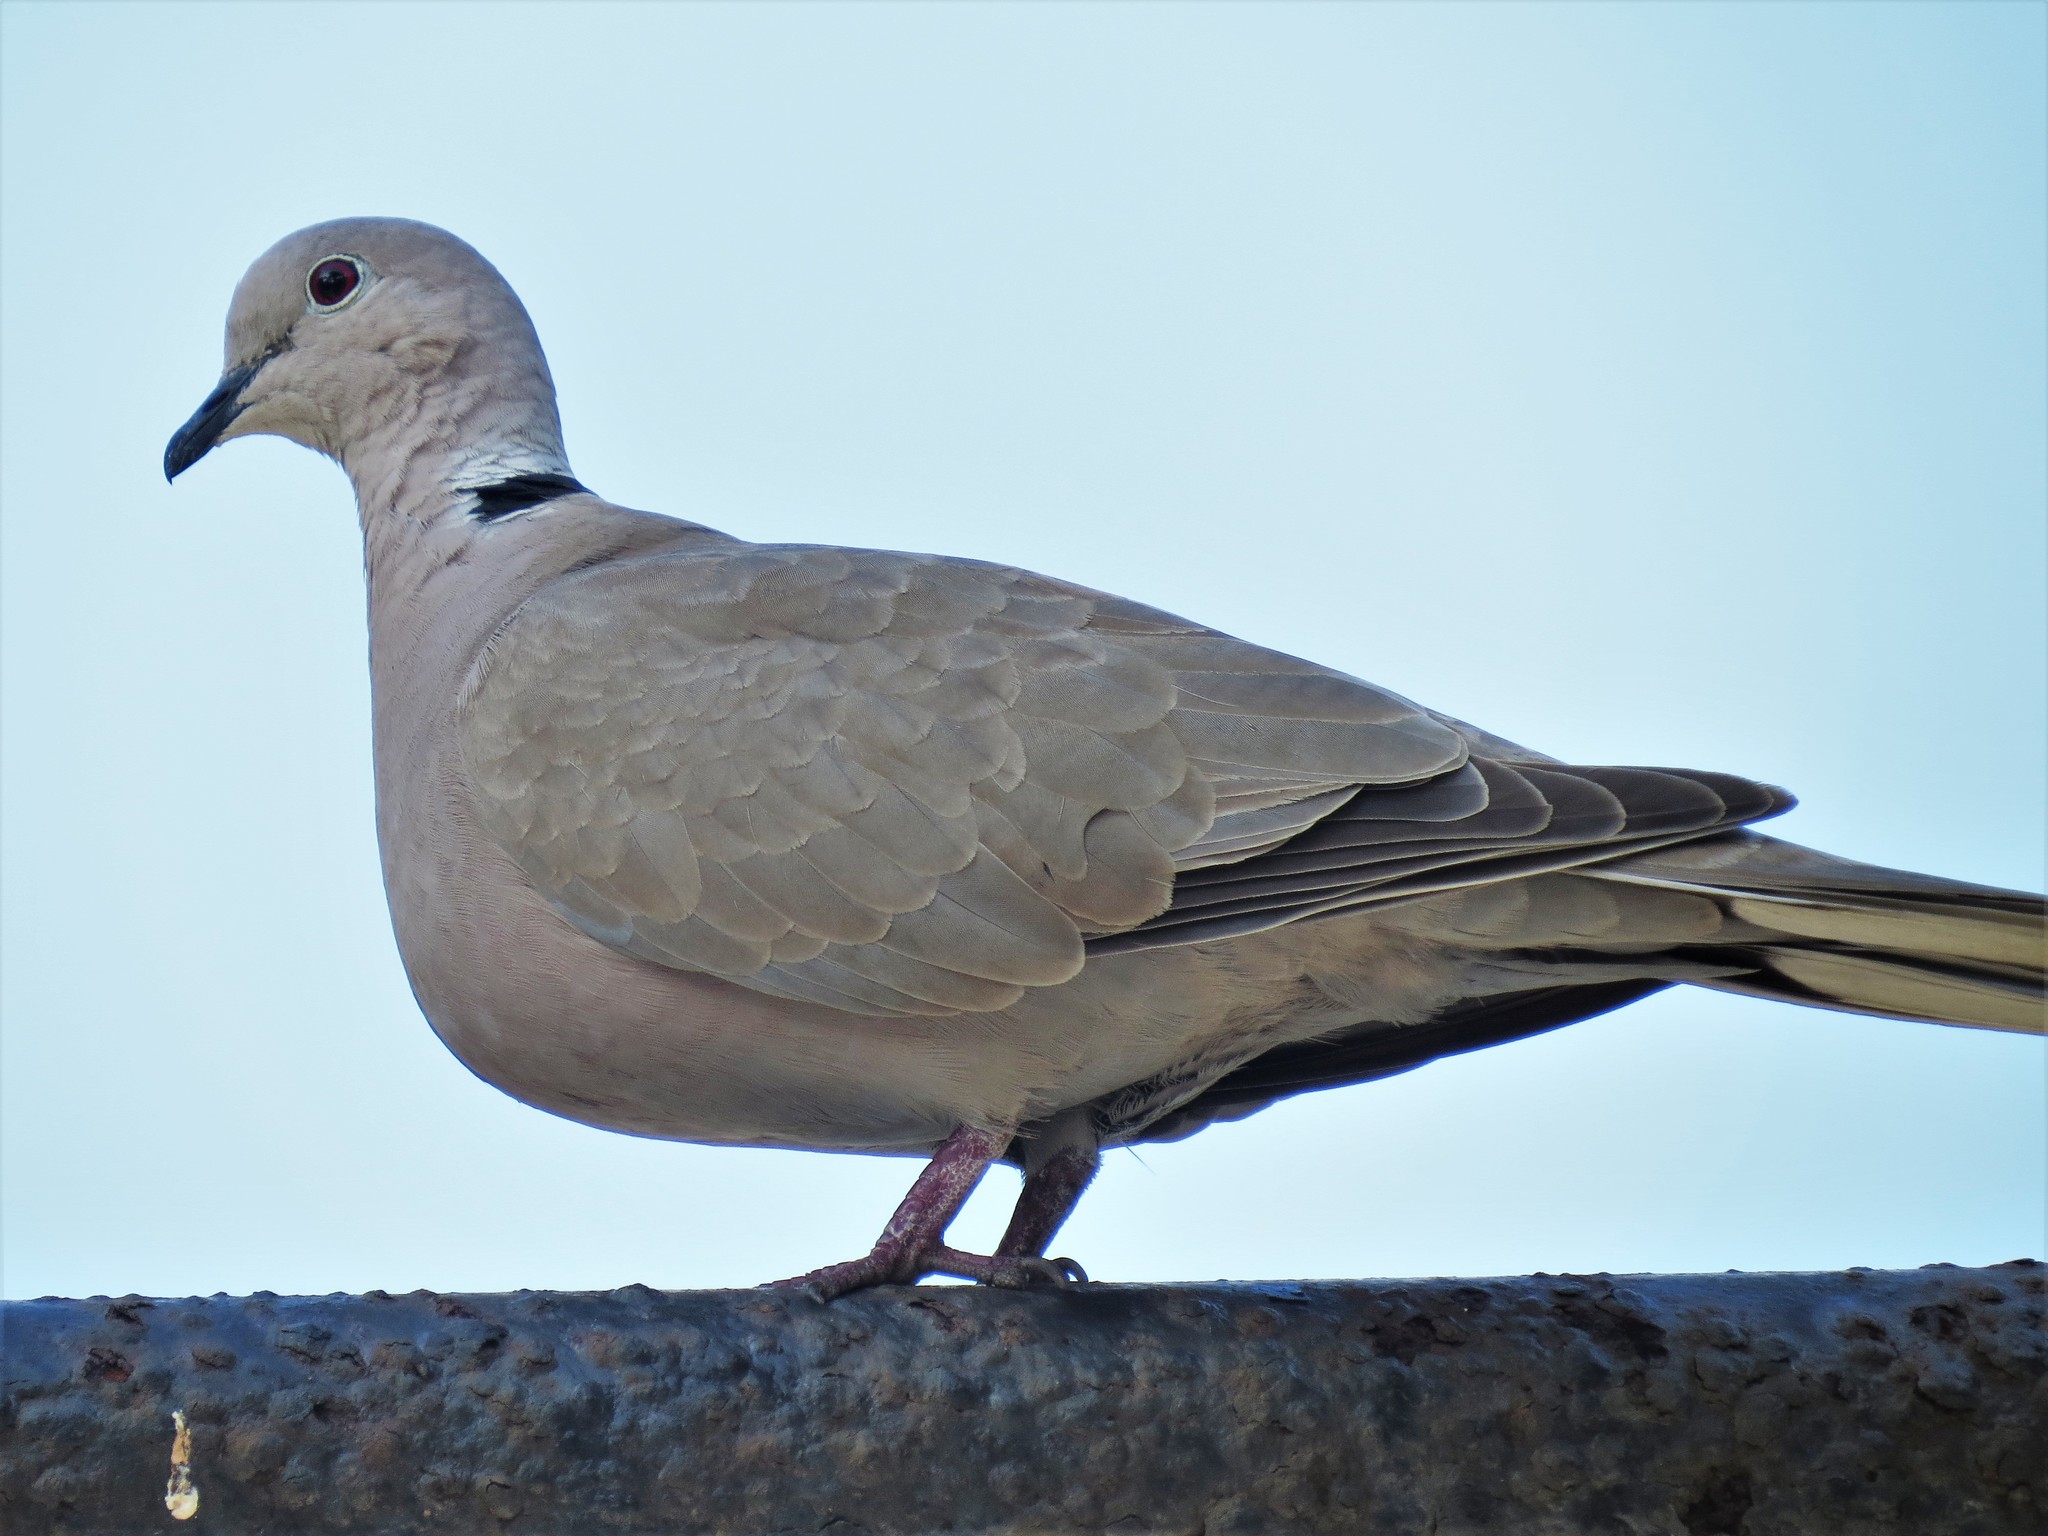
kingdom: Animalia
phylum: Chordata
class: Aves
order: Columbiformes
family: Columbidae
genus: Streptopelia
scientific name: Streptopelia decaocto
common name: Eurasian collared dove
